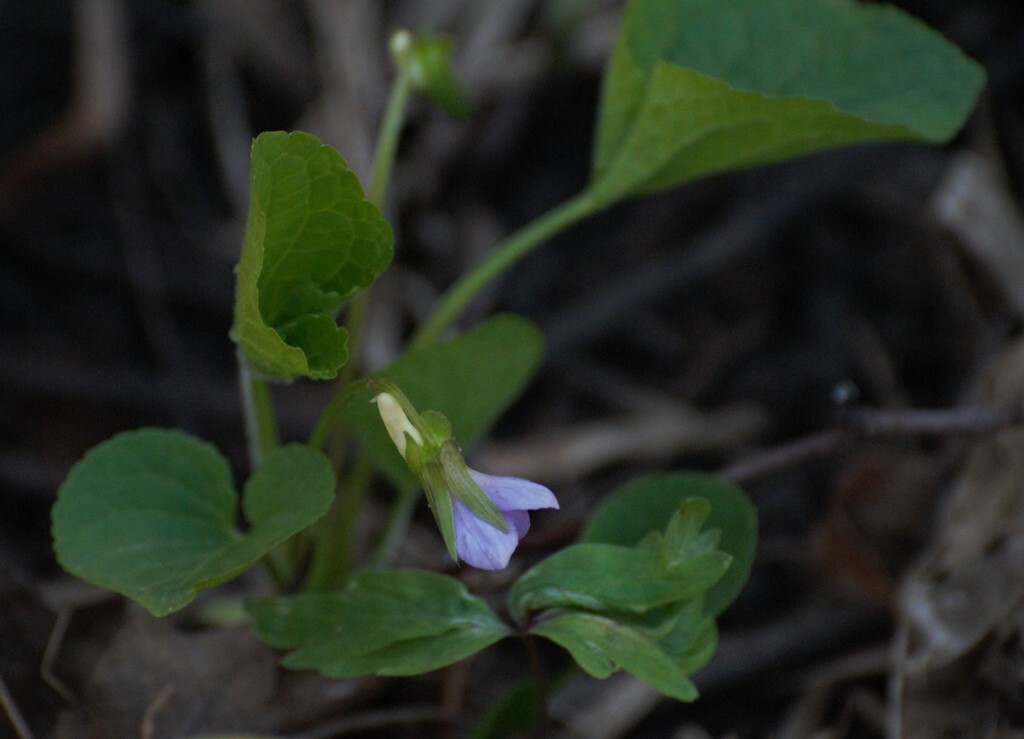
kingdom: Plantae
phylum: Tracheophyta
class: Magnoliopsida
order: Malpighiales
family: Violaceae
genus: Viola
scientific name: Viola mirabilis
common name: Wonder violet
